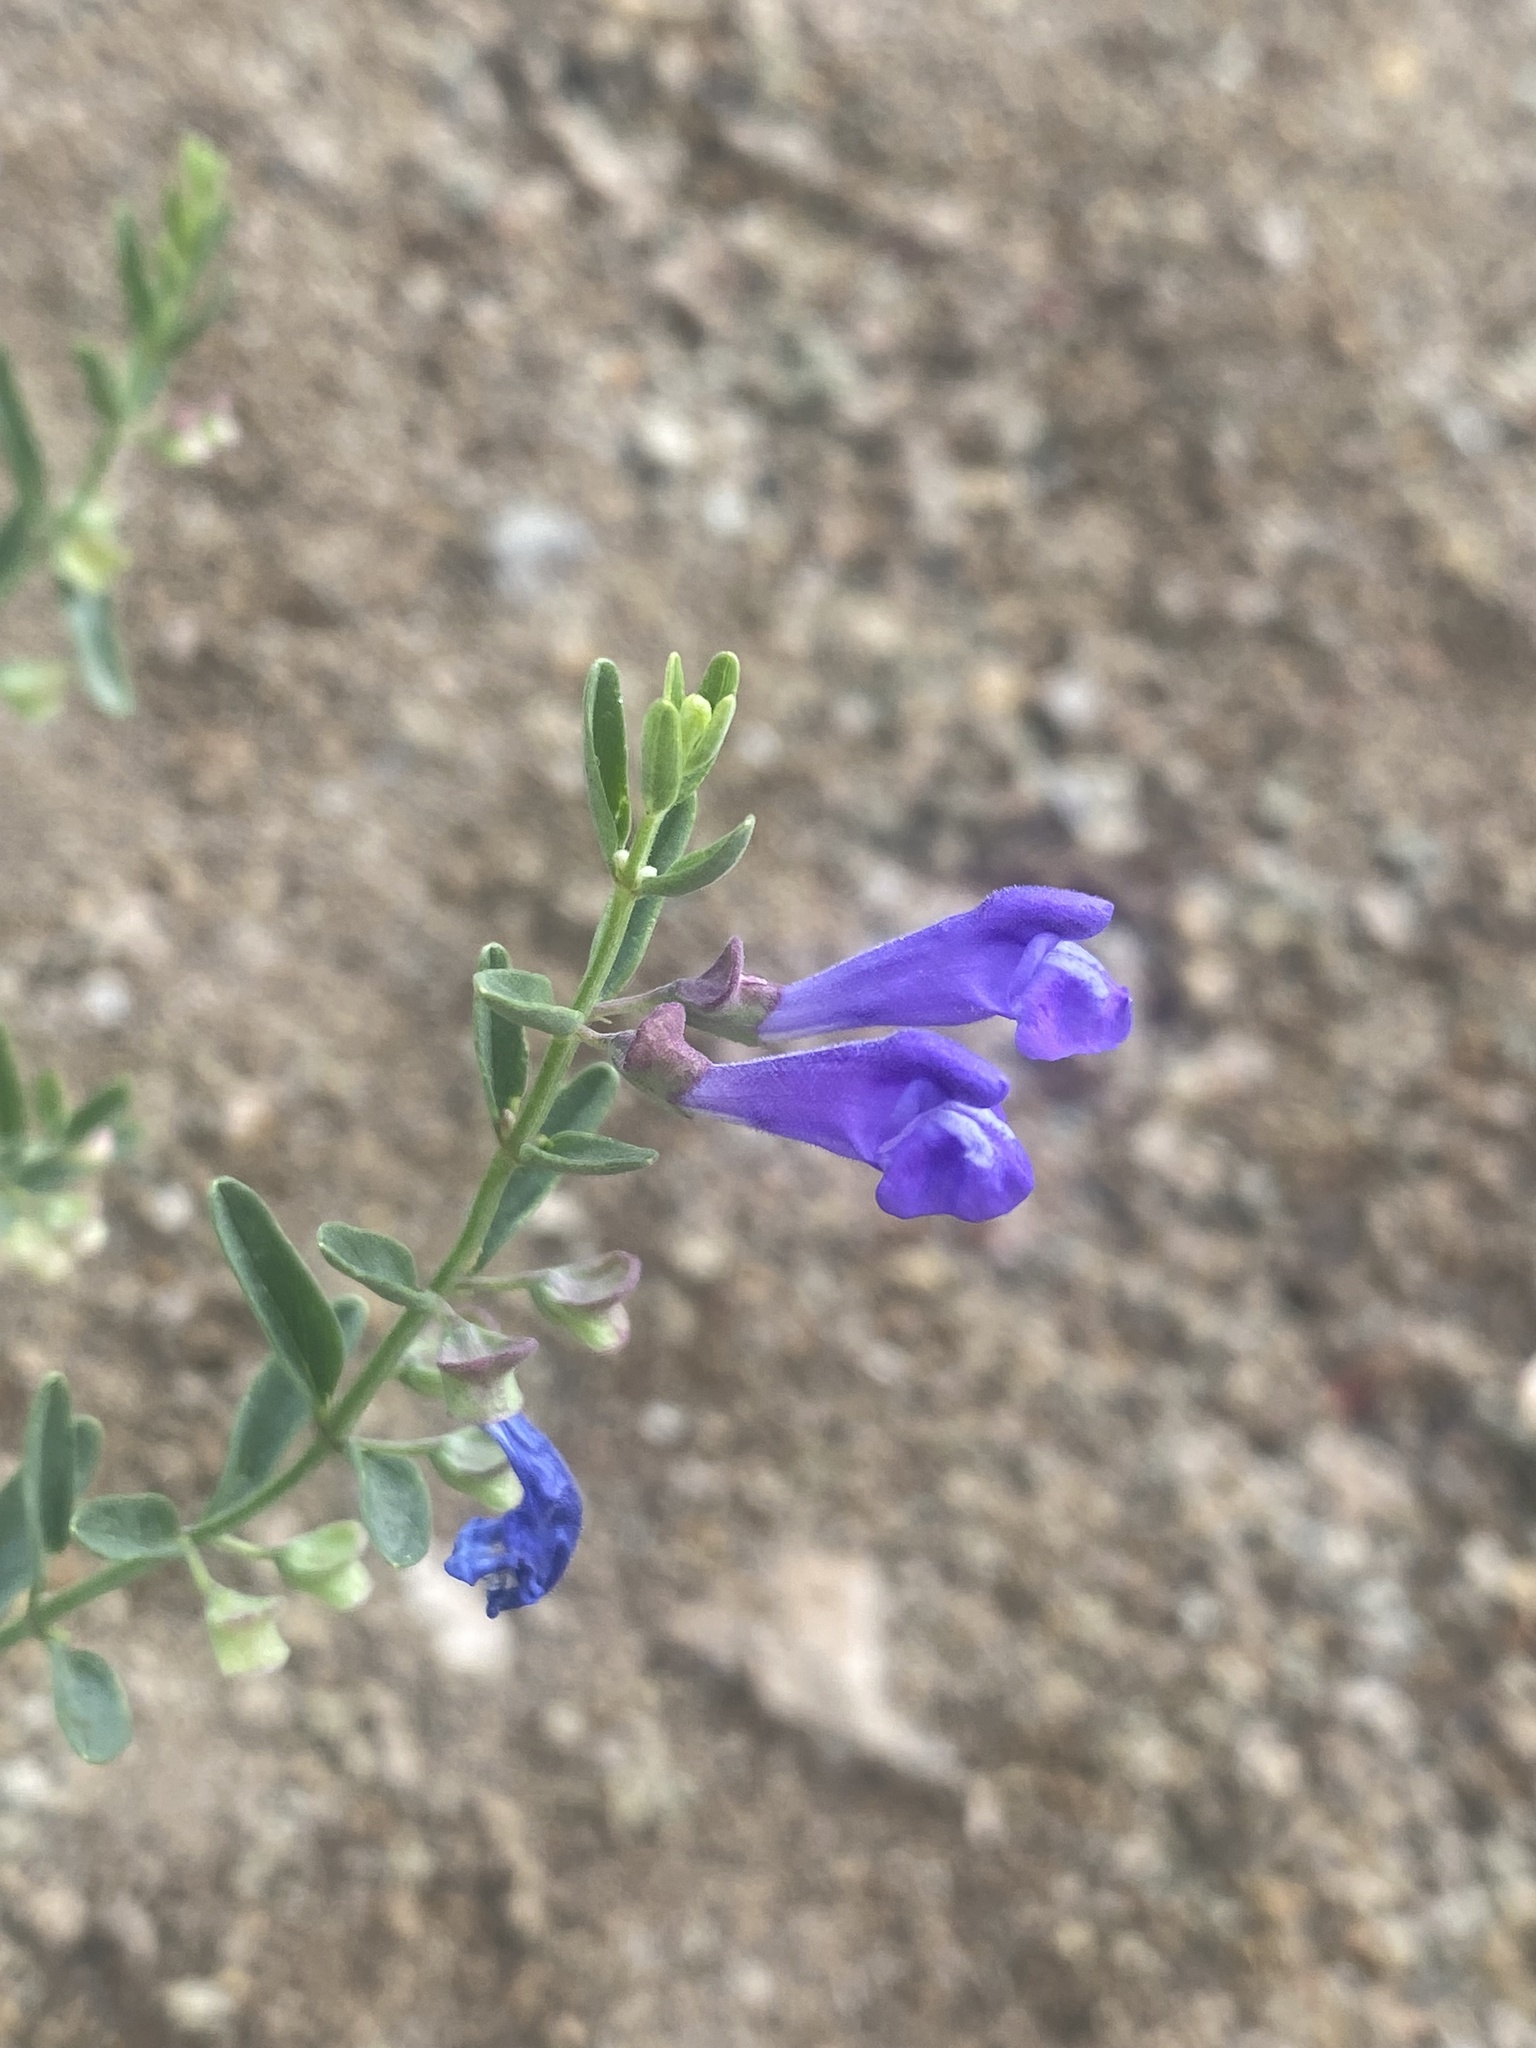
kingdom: Plantae
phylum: Tracheophyta
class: Magnoliopsida
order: Lamiales
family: Lamiaceae
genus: Scutellaria
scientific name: Scutellaria angustifolia
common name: Narrow-leaved skullcap
